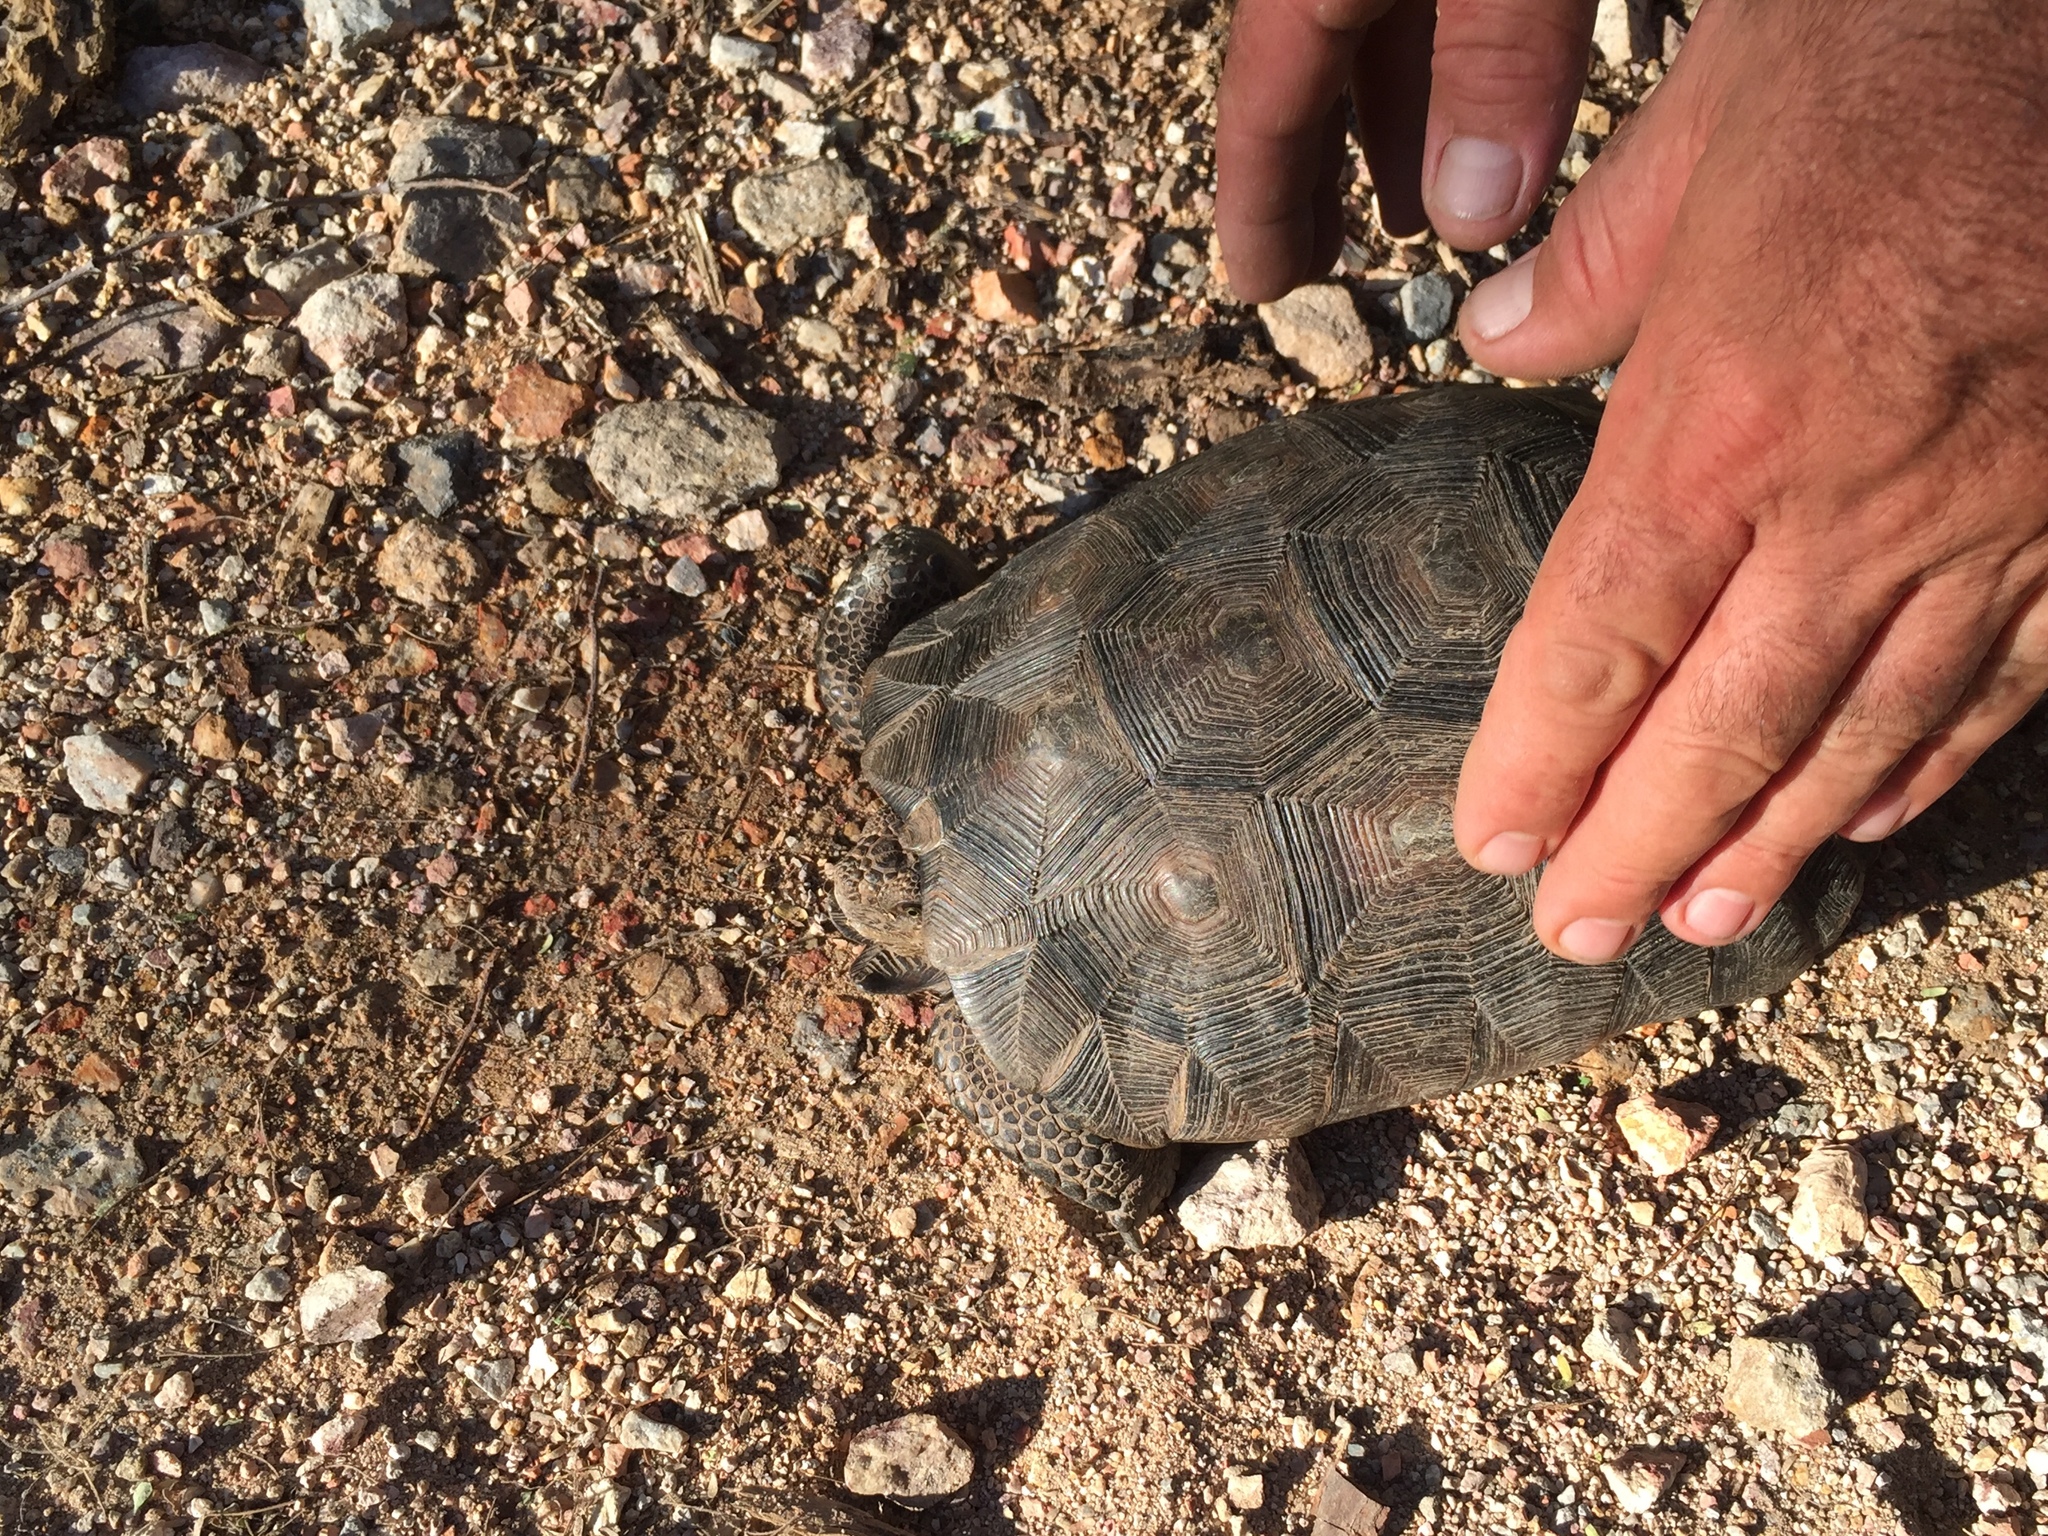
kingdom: Animalia
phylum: Chordata
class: Testudines
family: Testudinidae
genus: Gopherus
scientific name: Gopherus morafkai
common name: Sonoran desert tortoise
